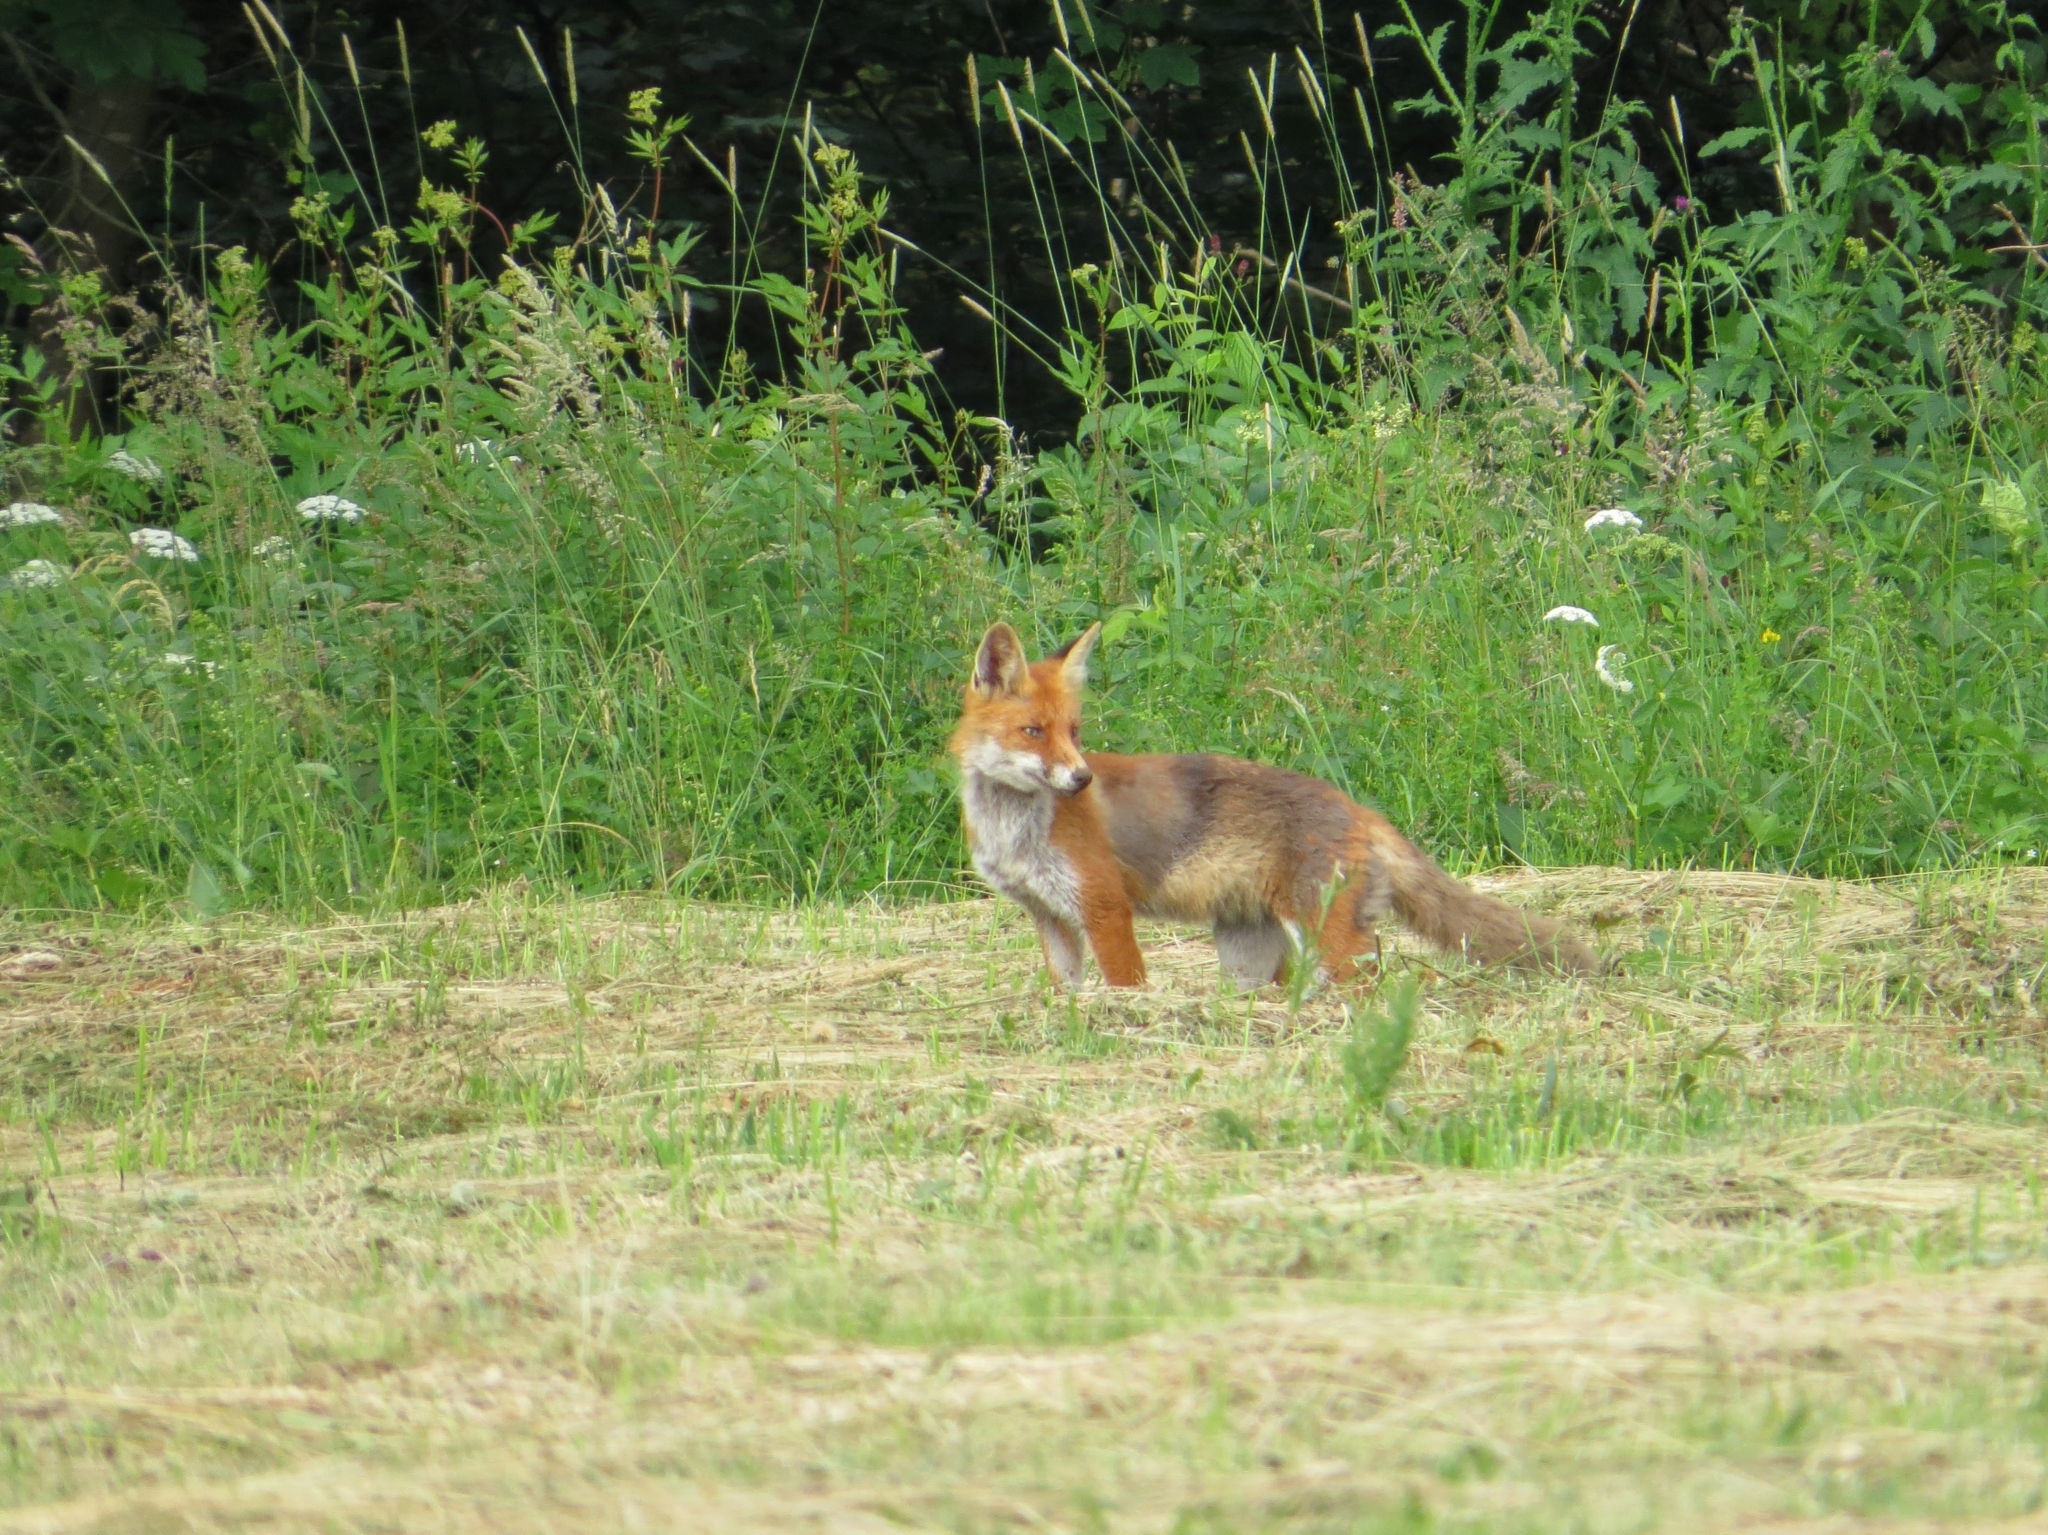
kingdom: Animalia
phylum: Chordata
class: Mammalia
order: Carnivora
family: Canidae
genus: Vulpes
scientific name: Vulpes vulpes
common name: Red fox
